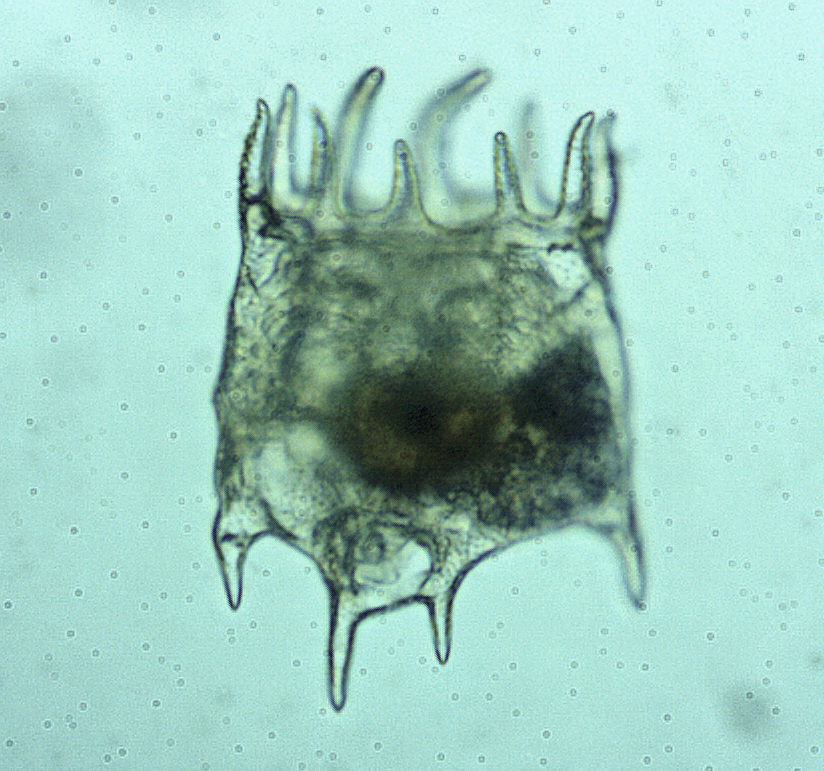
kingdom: Animalia
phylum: Rotifera
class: Eurotatoria
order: Ploima
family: Brachionidae
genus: Plationus
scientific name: Plationus patulus
